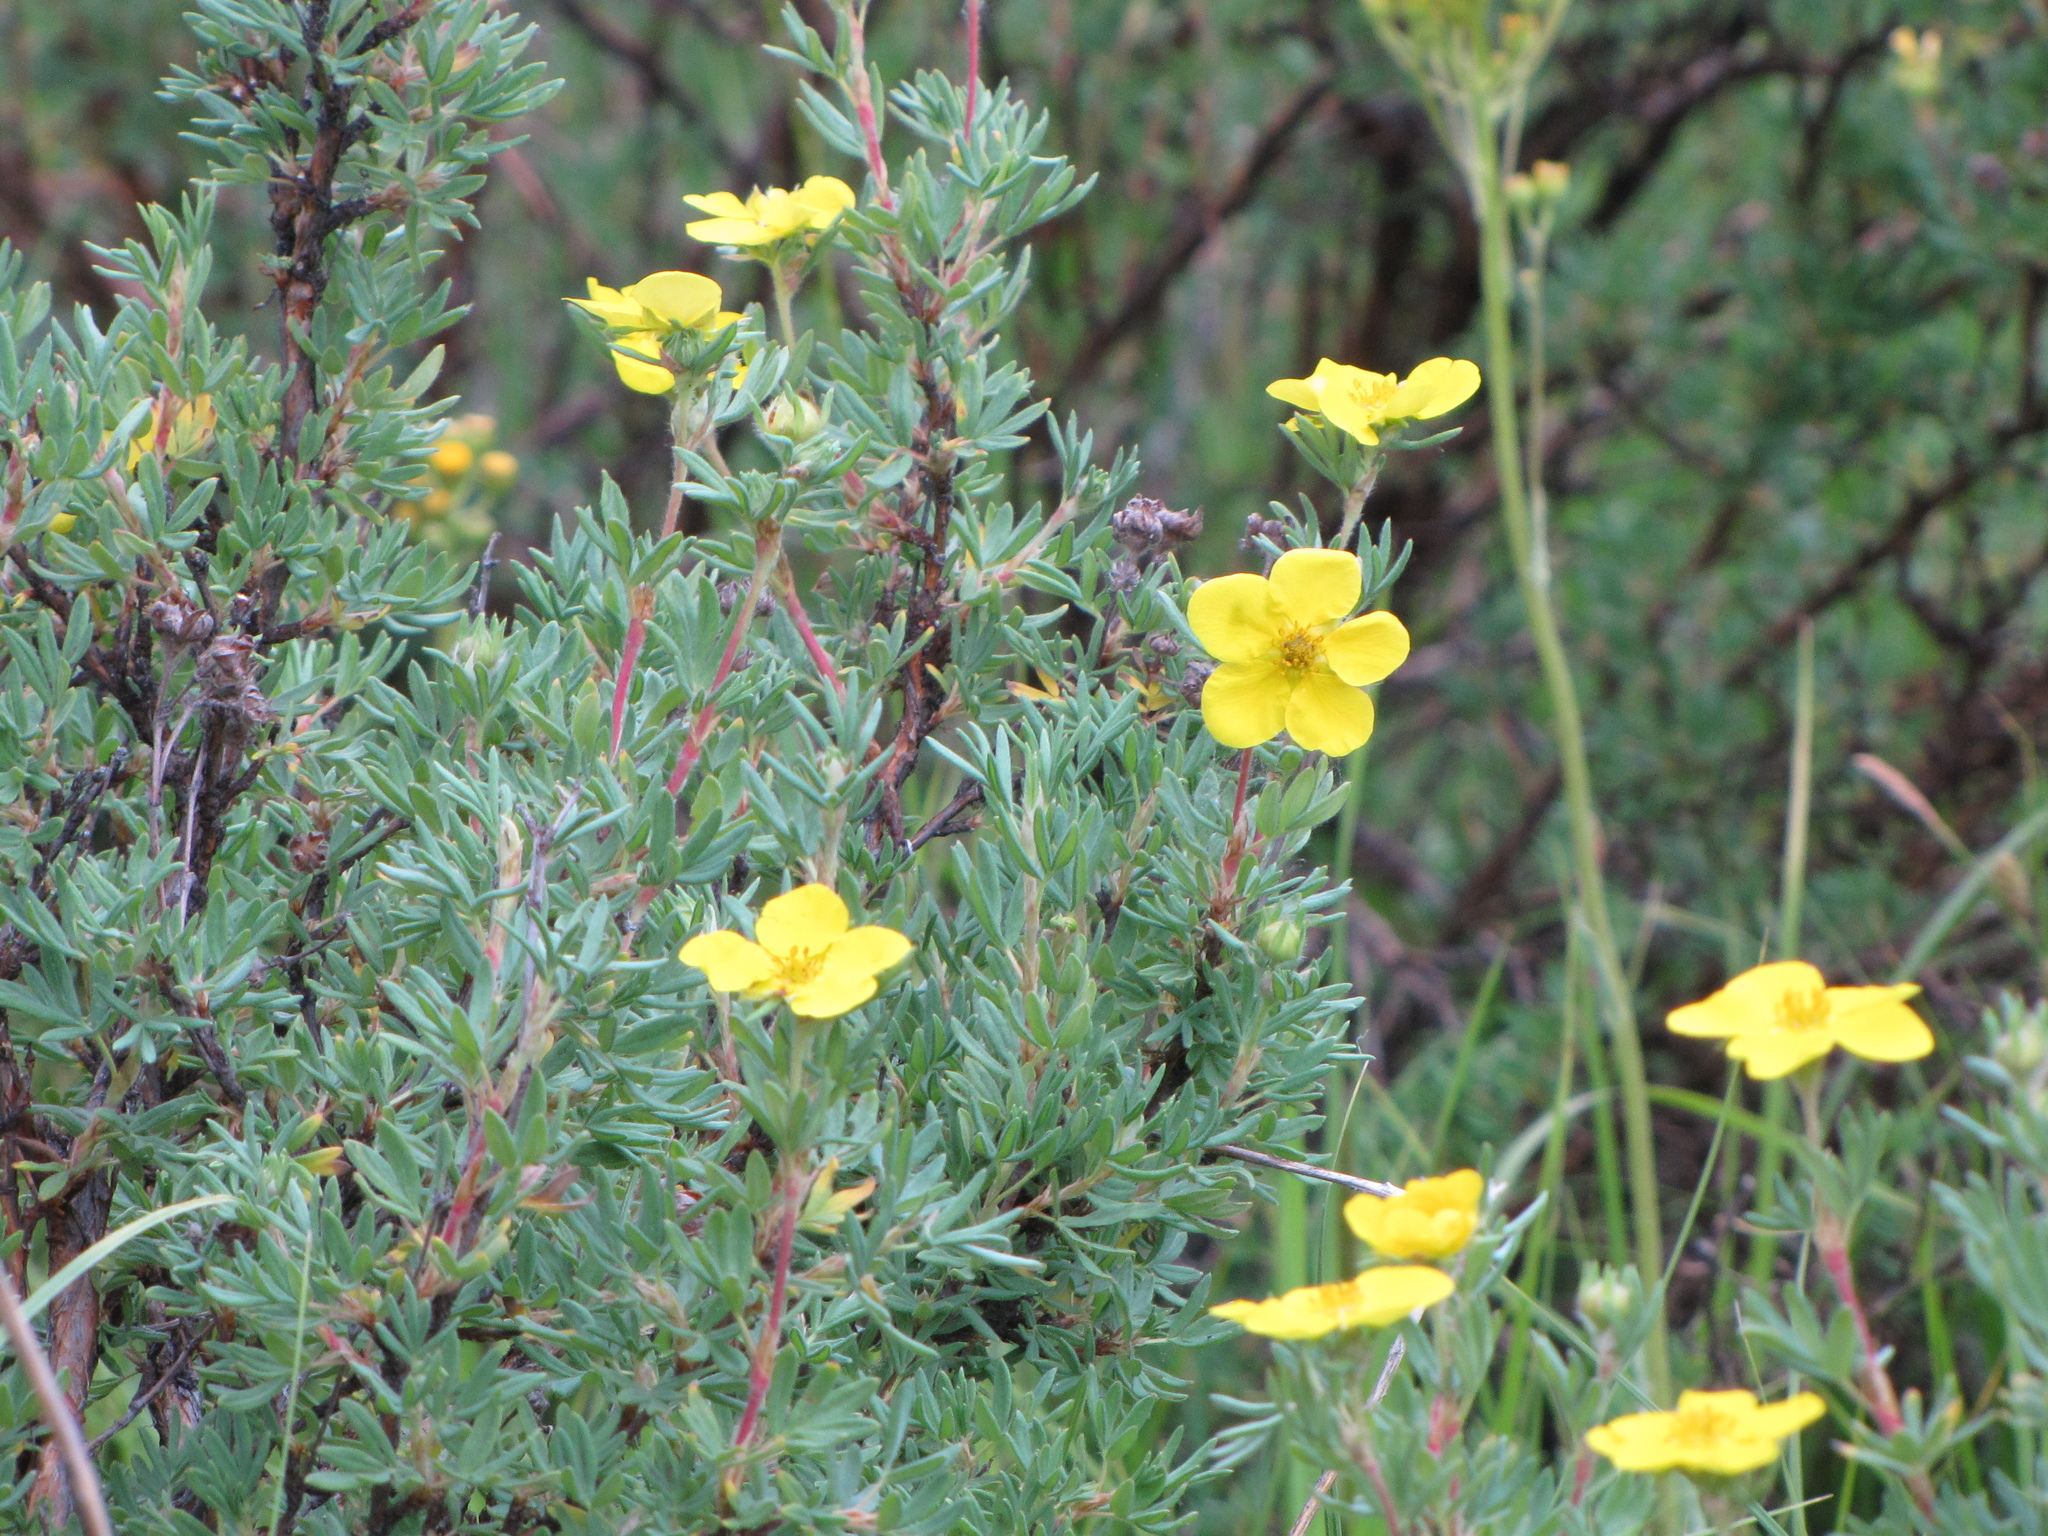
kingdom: Plantae
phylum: Tracheophyta
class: Magnoliopsida
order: Rosales
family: Rosaceae
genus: Dasiphora
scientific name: Dasiphora fruticosa
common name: Shrubby cinquefoil
